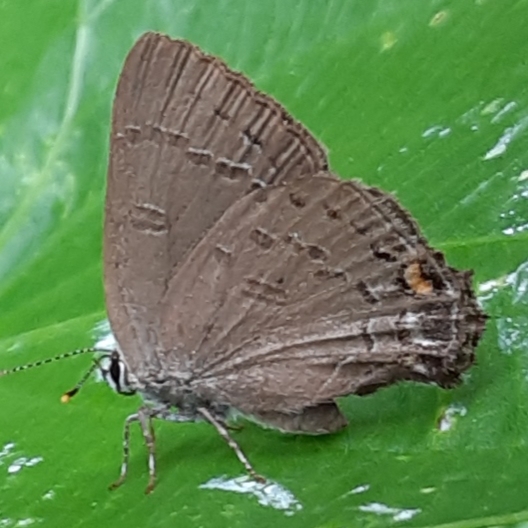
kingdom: Animalia
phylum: Arthropoda
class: Insecta
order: Lepidoptera
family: Lycaenidae
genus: Satyrium
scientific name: Satyrium calanus
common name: Banded hairstreak
